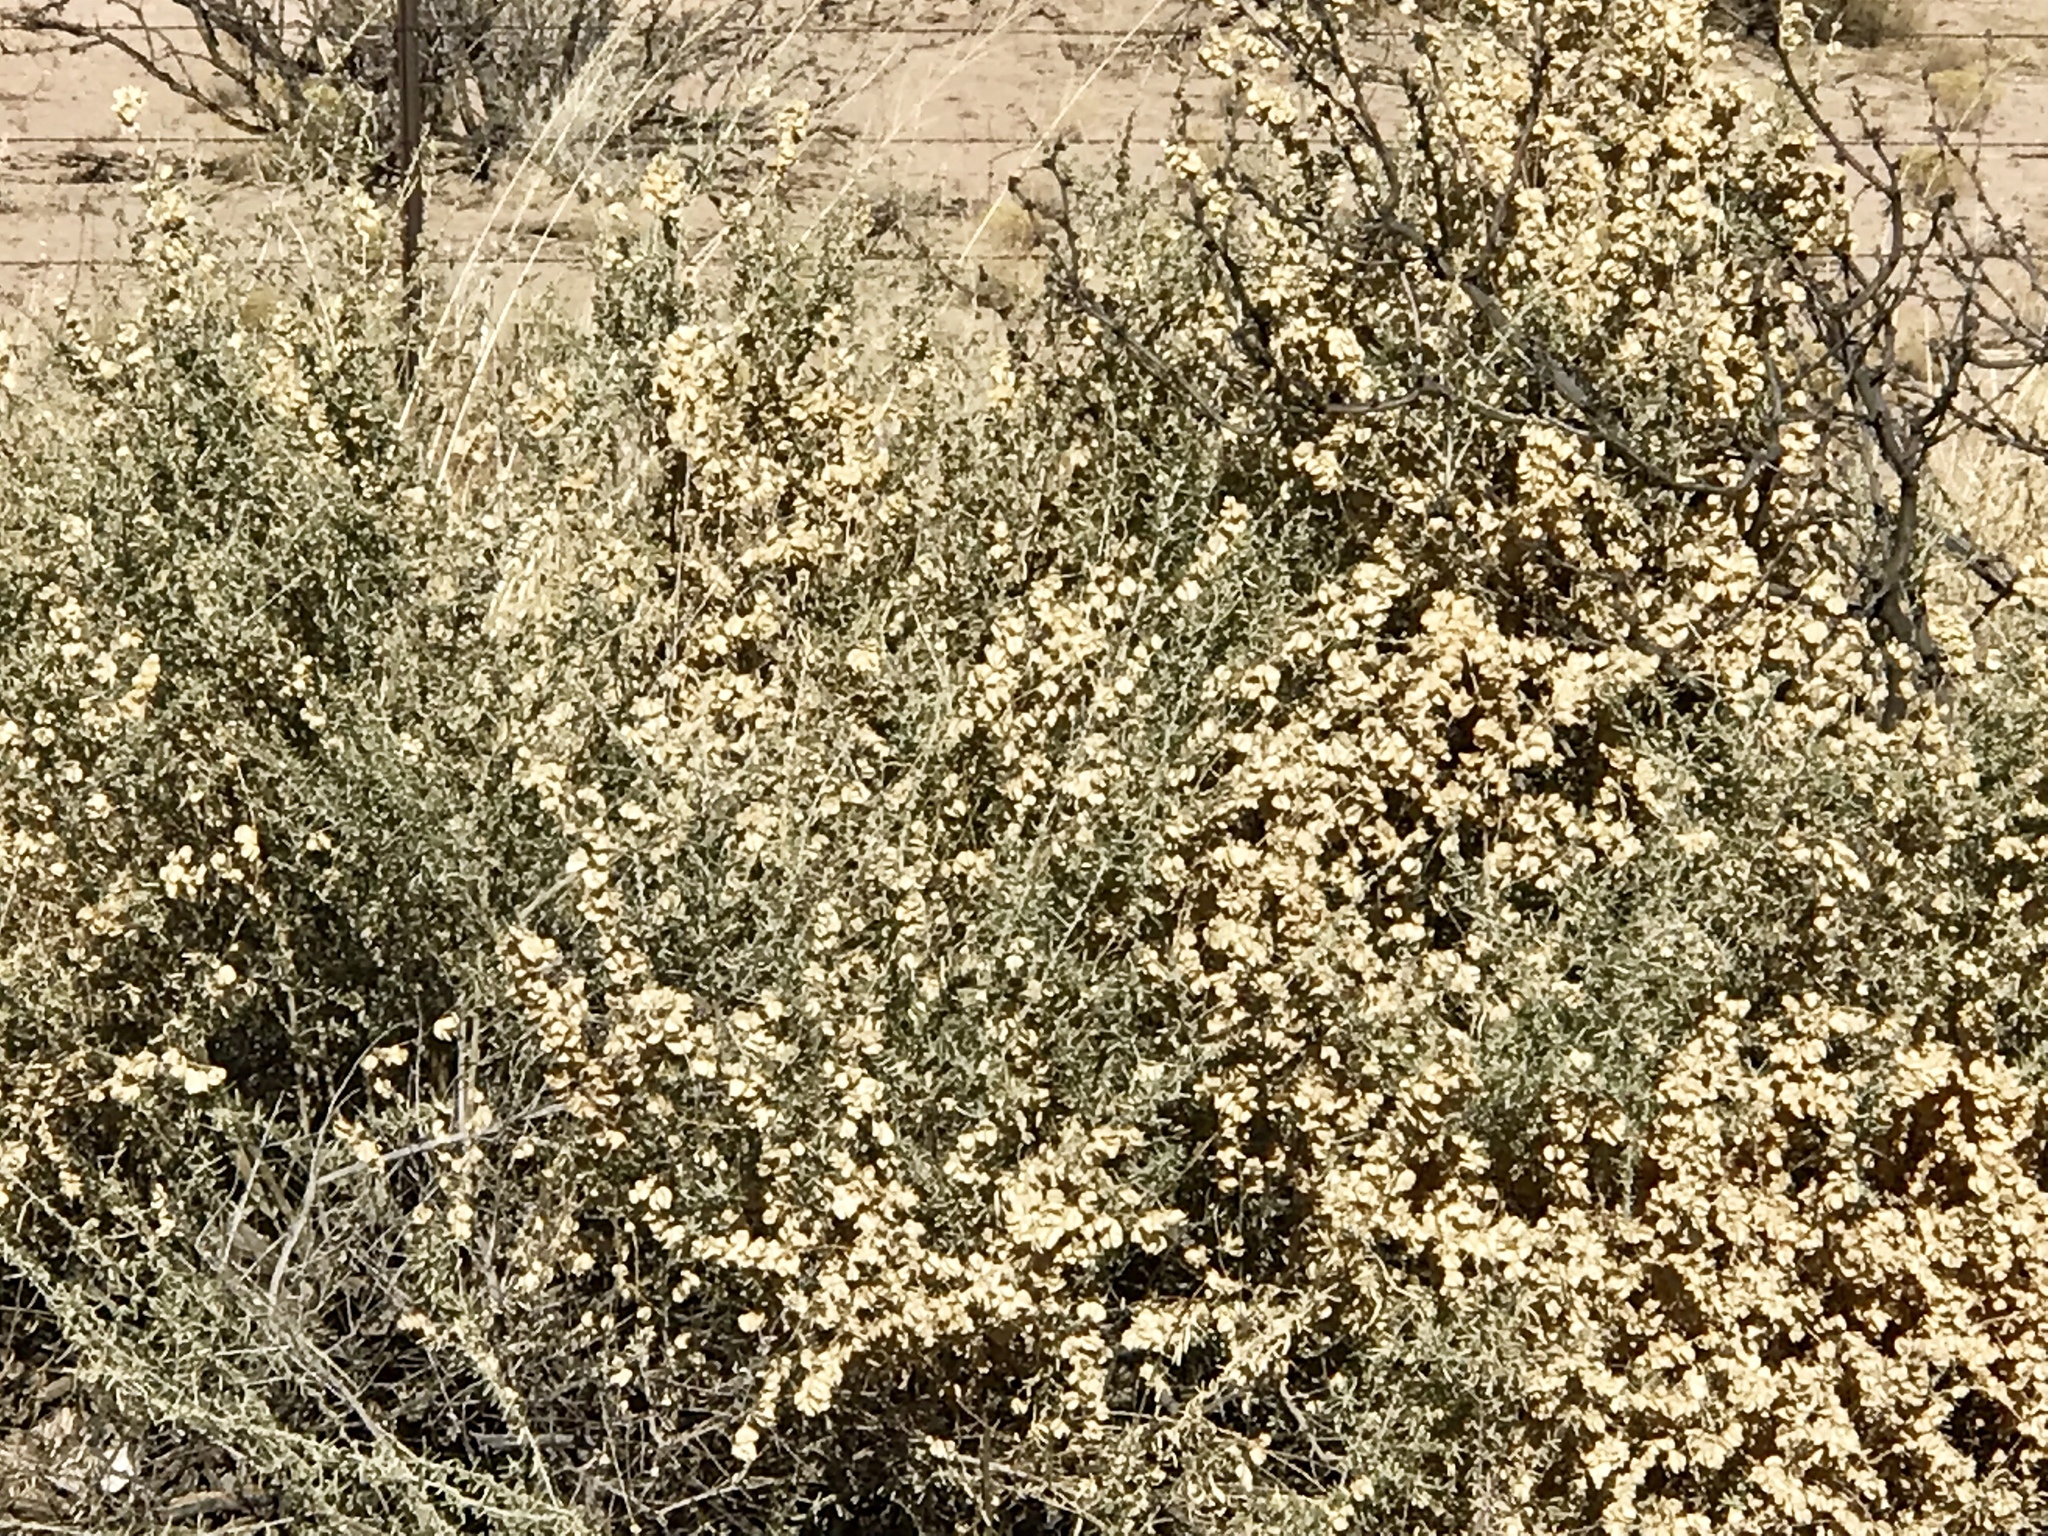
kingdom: Plantae
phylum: Tracheophyta
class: Magnoliopsida
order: Caryophyllales
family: Amaranthaceae
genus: Atriplex
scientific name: Atriplex canescens
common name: Four-wing saltbush
